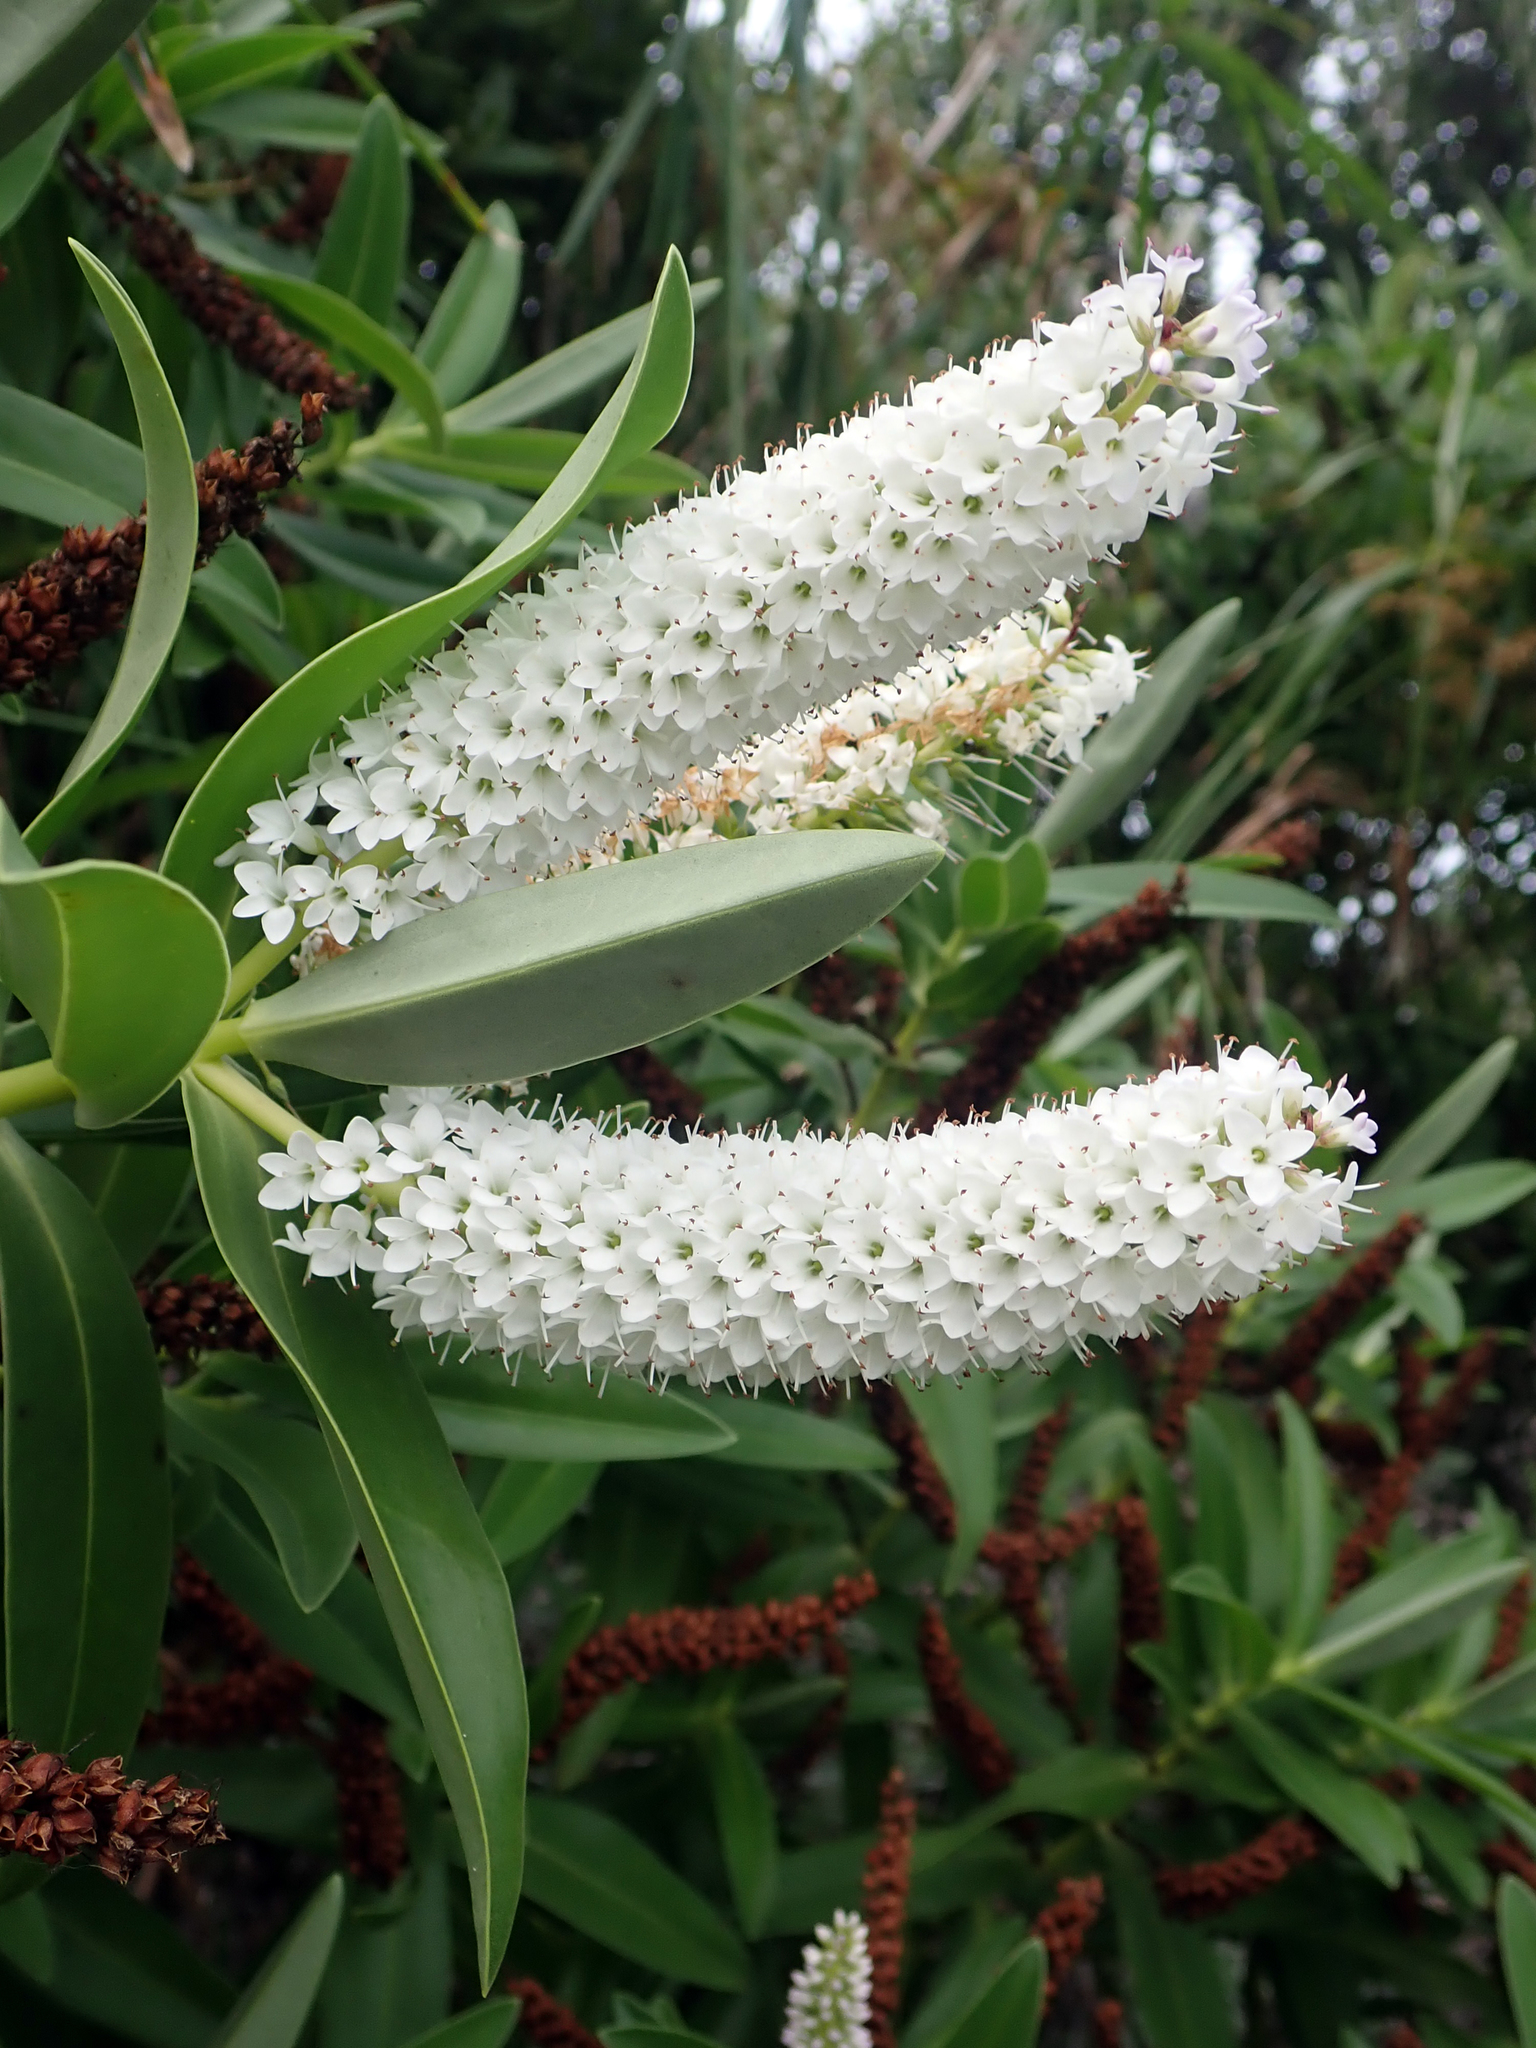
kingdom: Plantae
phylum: Tracheophyta
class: Magnoliopsida
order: Lamiales
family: Plantaginaceae
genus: Veronica
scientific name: Veronica dieffenbachii
